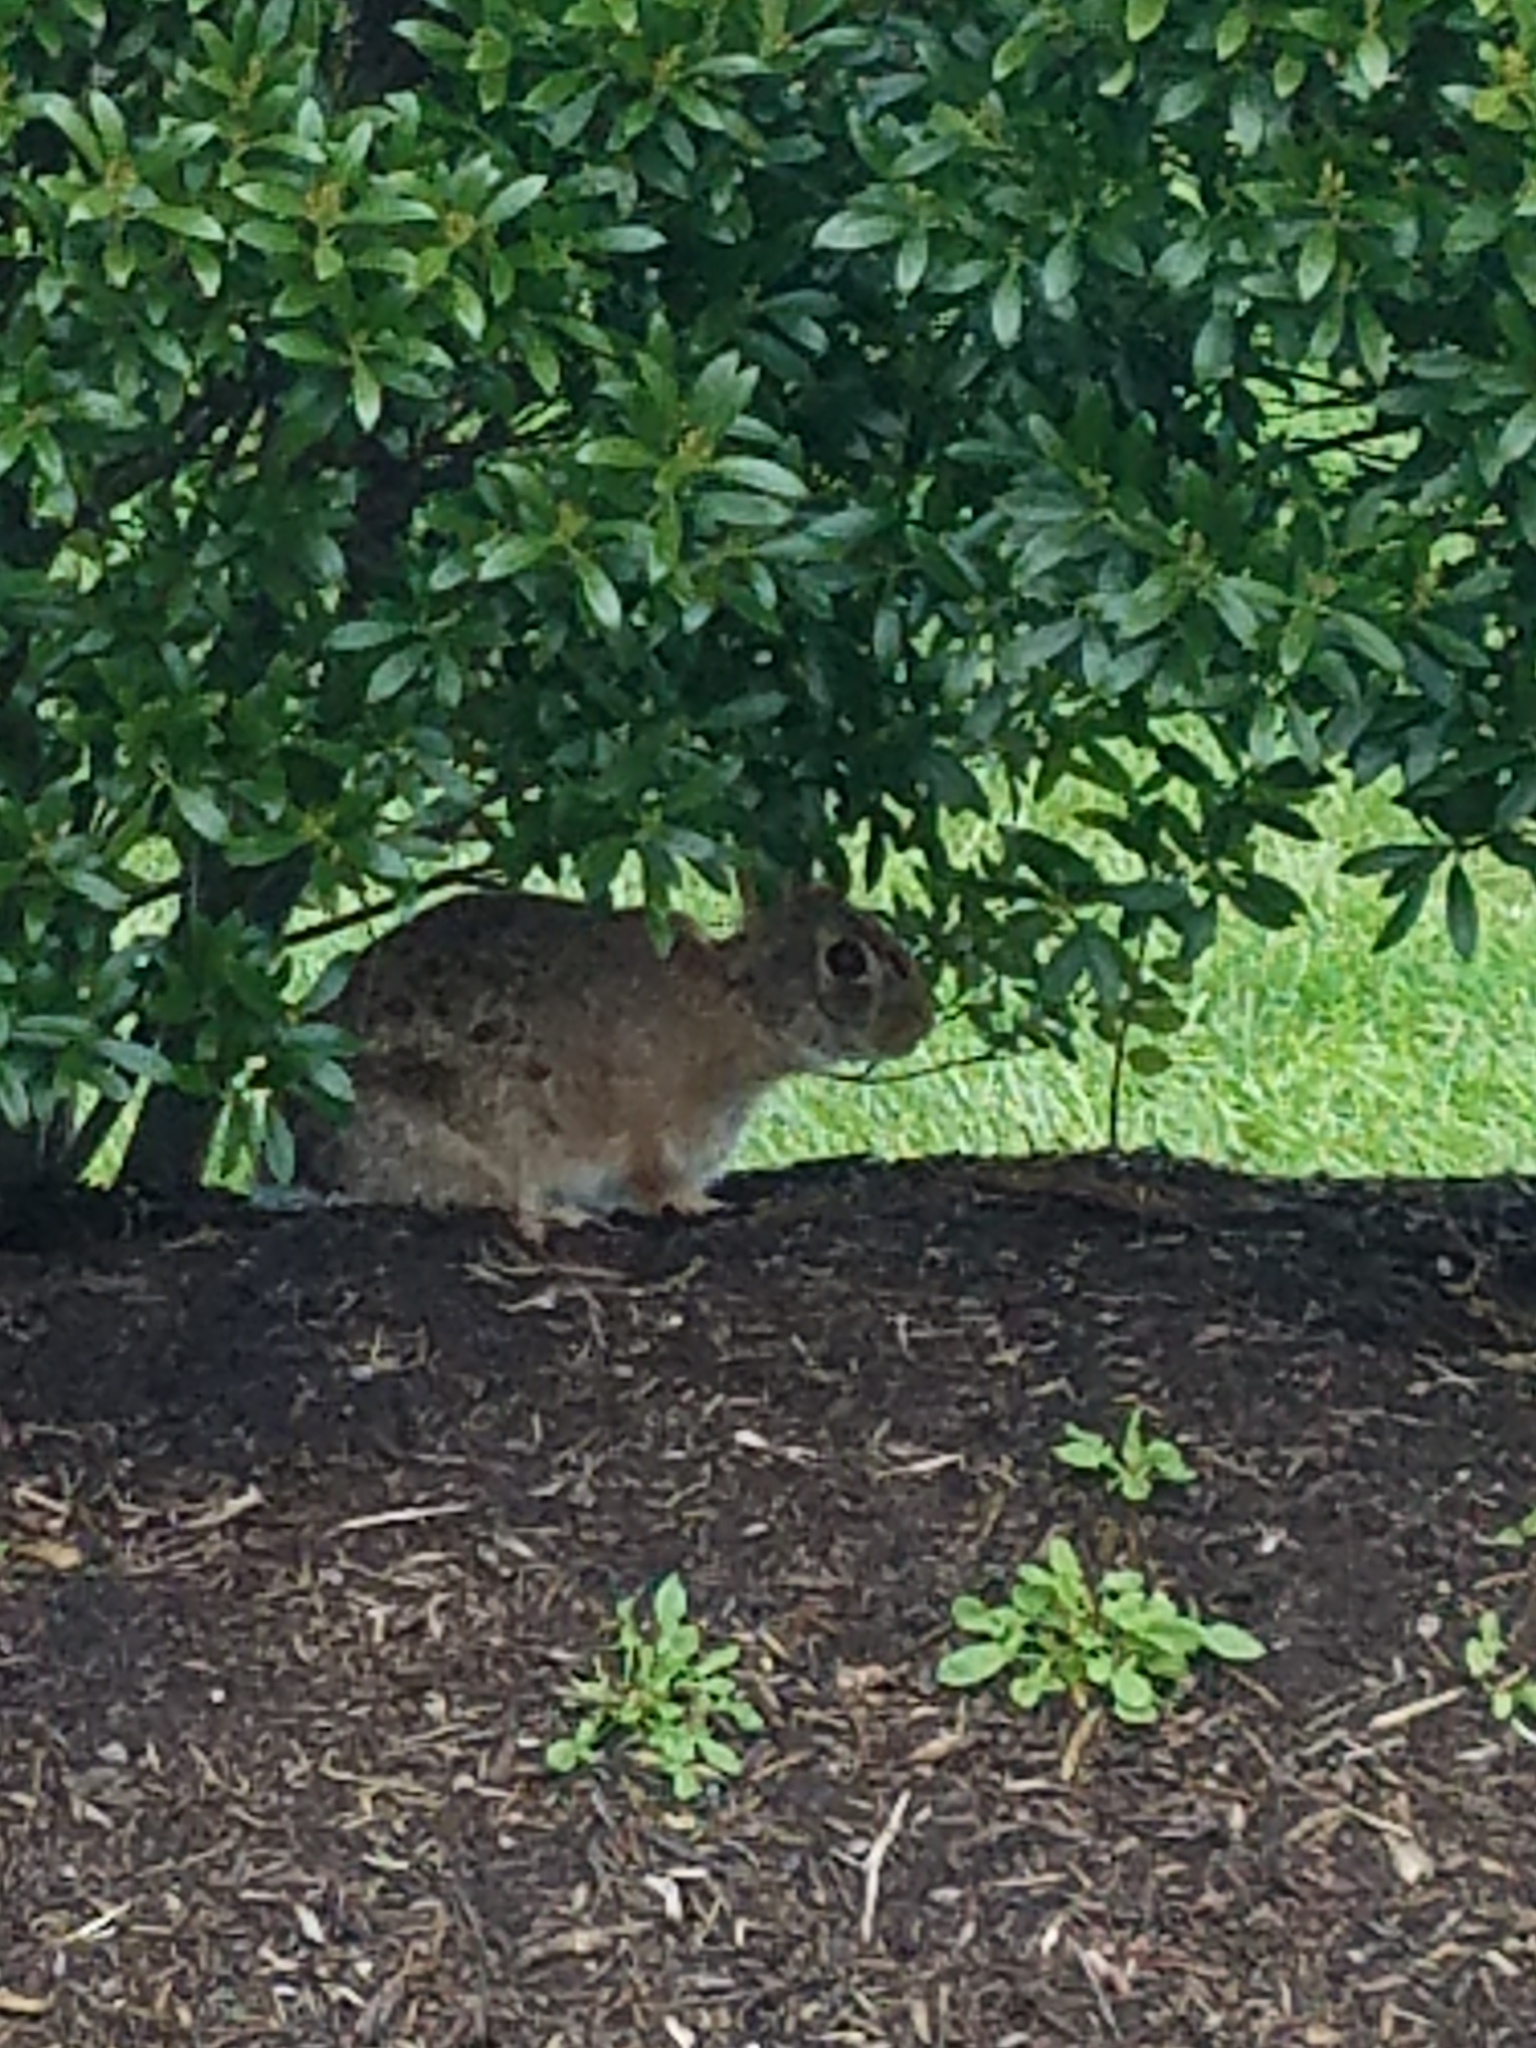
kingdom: Animalia
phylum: Chordata
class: Mammalia
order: Lagomorpha
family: Leporidae
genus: Sylvilagus
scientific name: Sylvilagus floridanus
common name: Eastern cottontail
